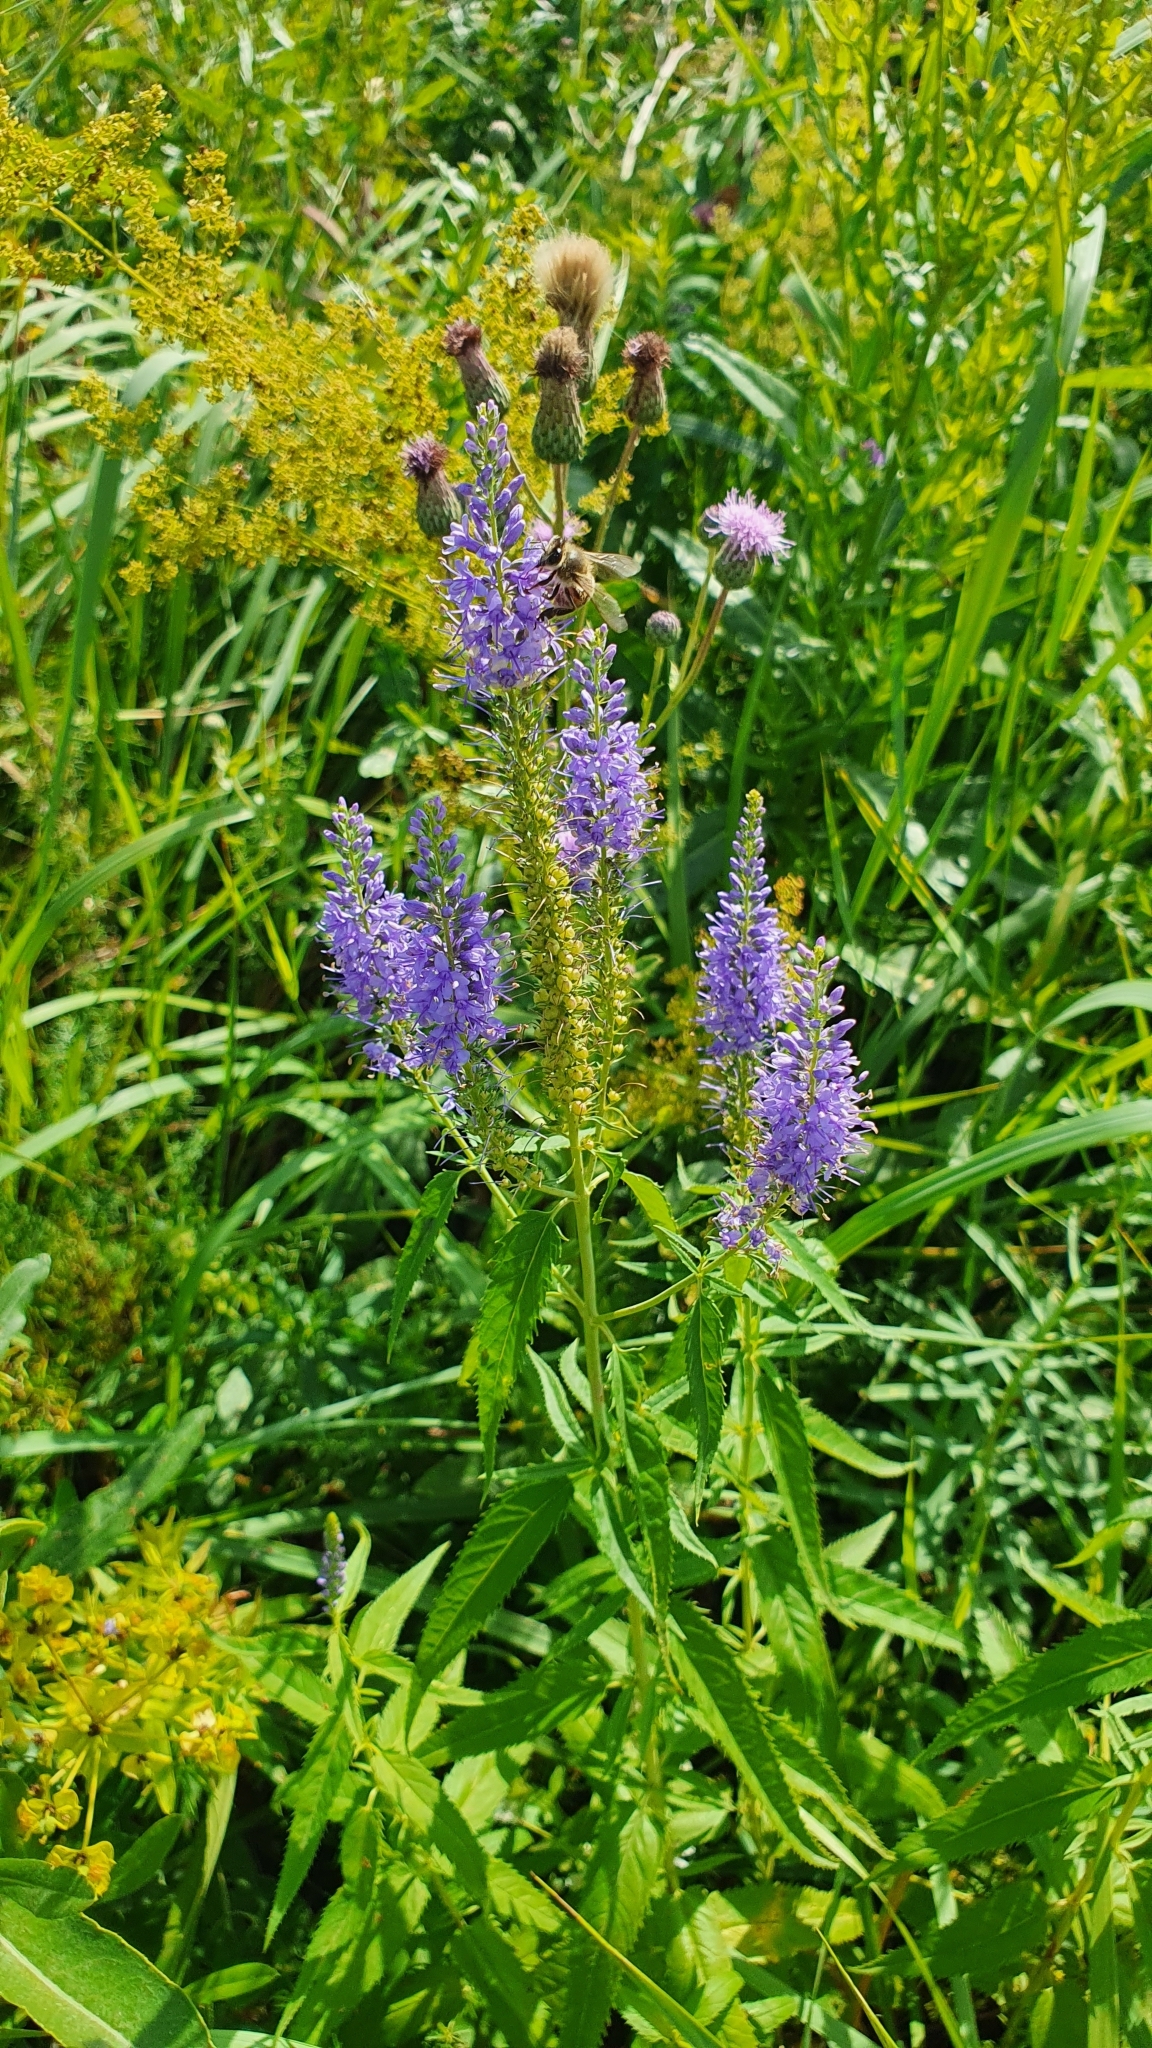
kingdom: Plantae
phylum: Tracheophyta
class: Magnoliopsida
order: Lamiales
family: Plantaginaceae
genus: Veronica
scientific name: Veronica longifolia
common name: Garden speedwell
